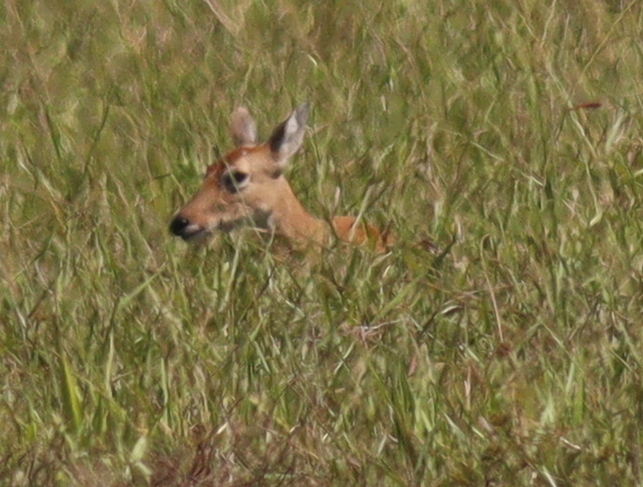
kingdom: Animalia
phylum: Chordata
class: Mammalia
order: Artiodactyla
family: Cervidae
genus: Ozotoceros
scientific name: Ozotoceros bezoarticus
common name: Pampas deer
